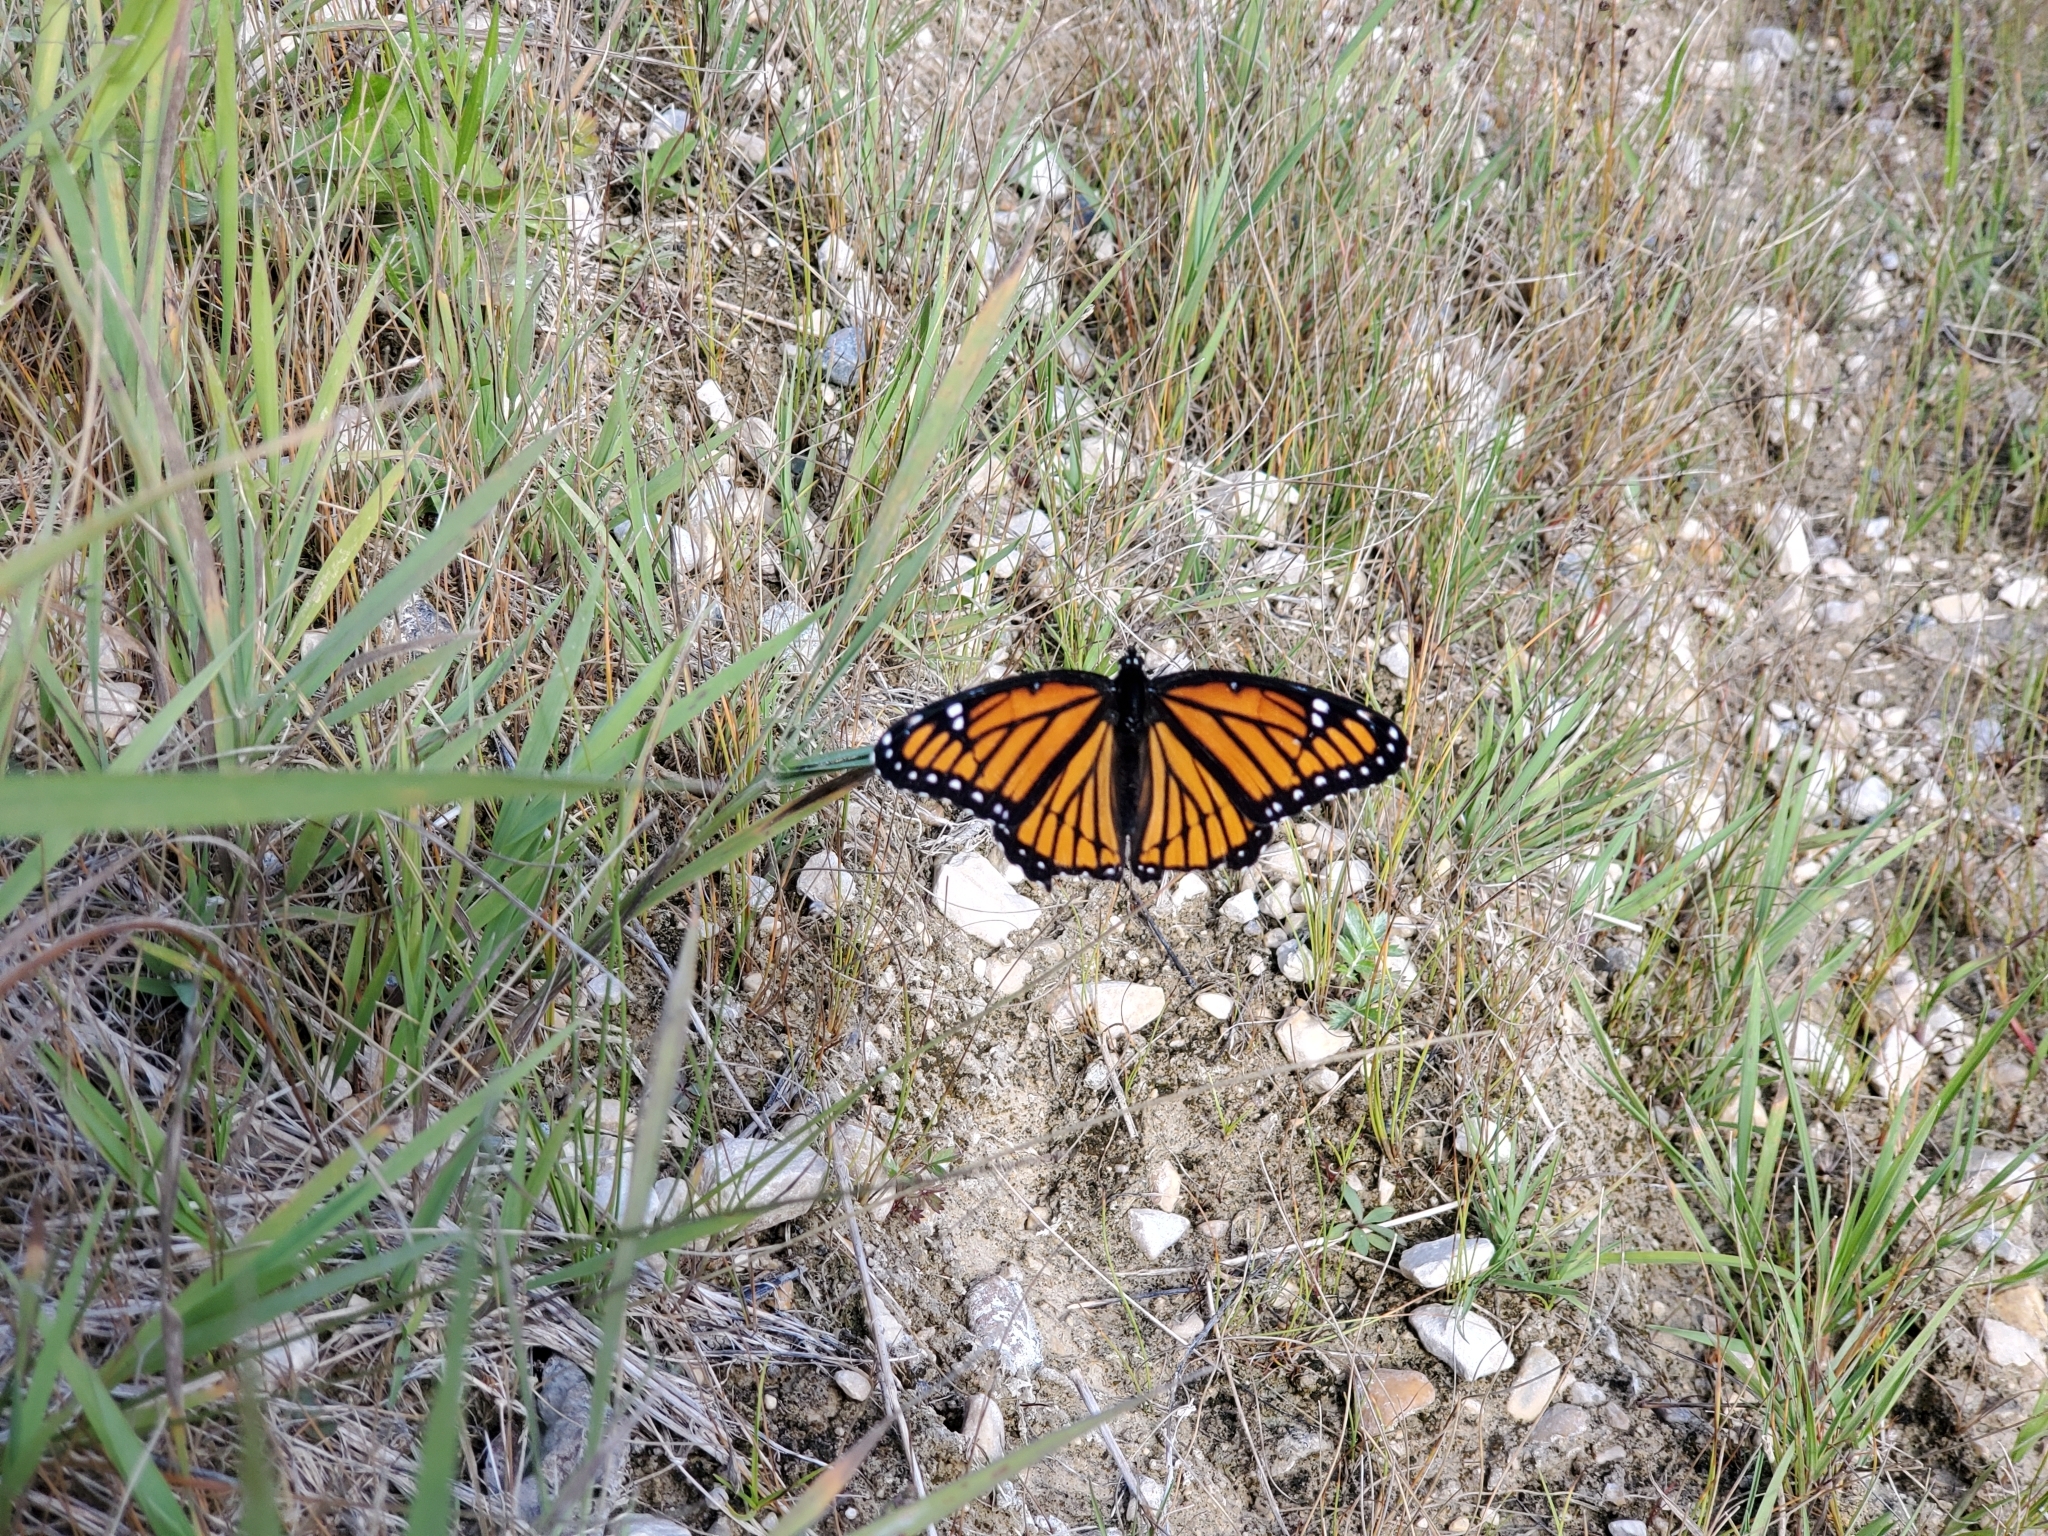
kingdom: Animalia
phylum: Arthropoda
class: Insecta
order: Lepidoptera
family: Nymphalidae
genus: Limenitis
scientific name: Limenitis archippus
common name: Viceroy
